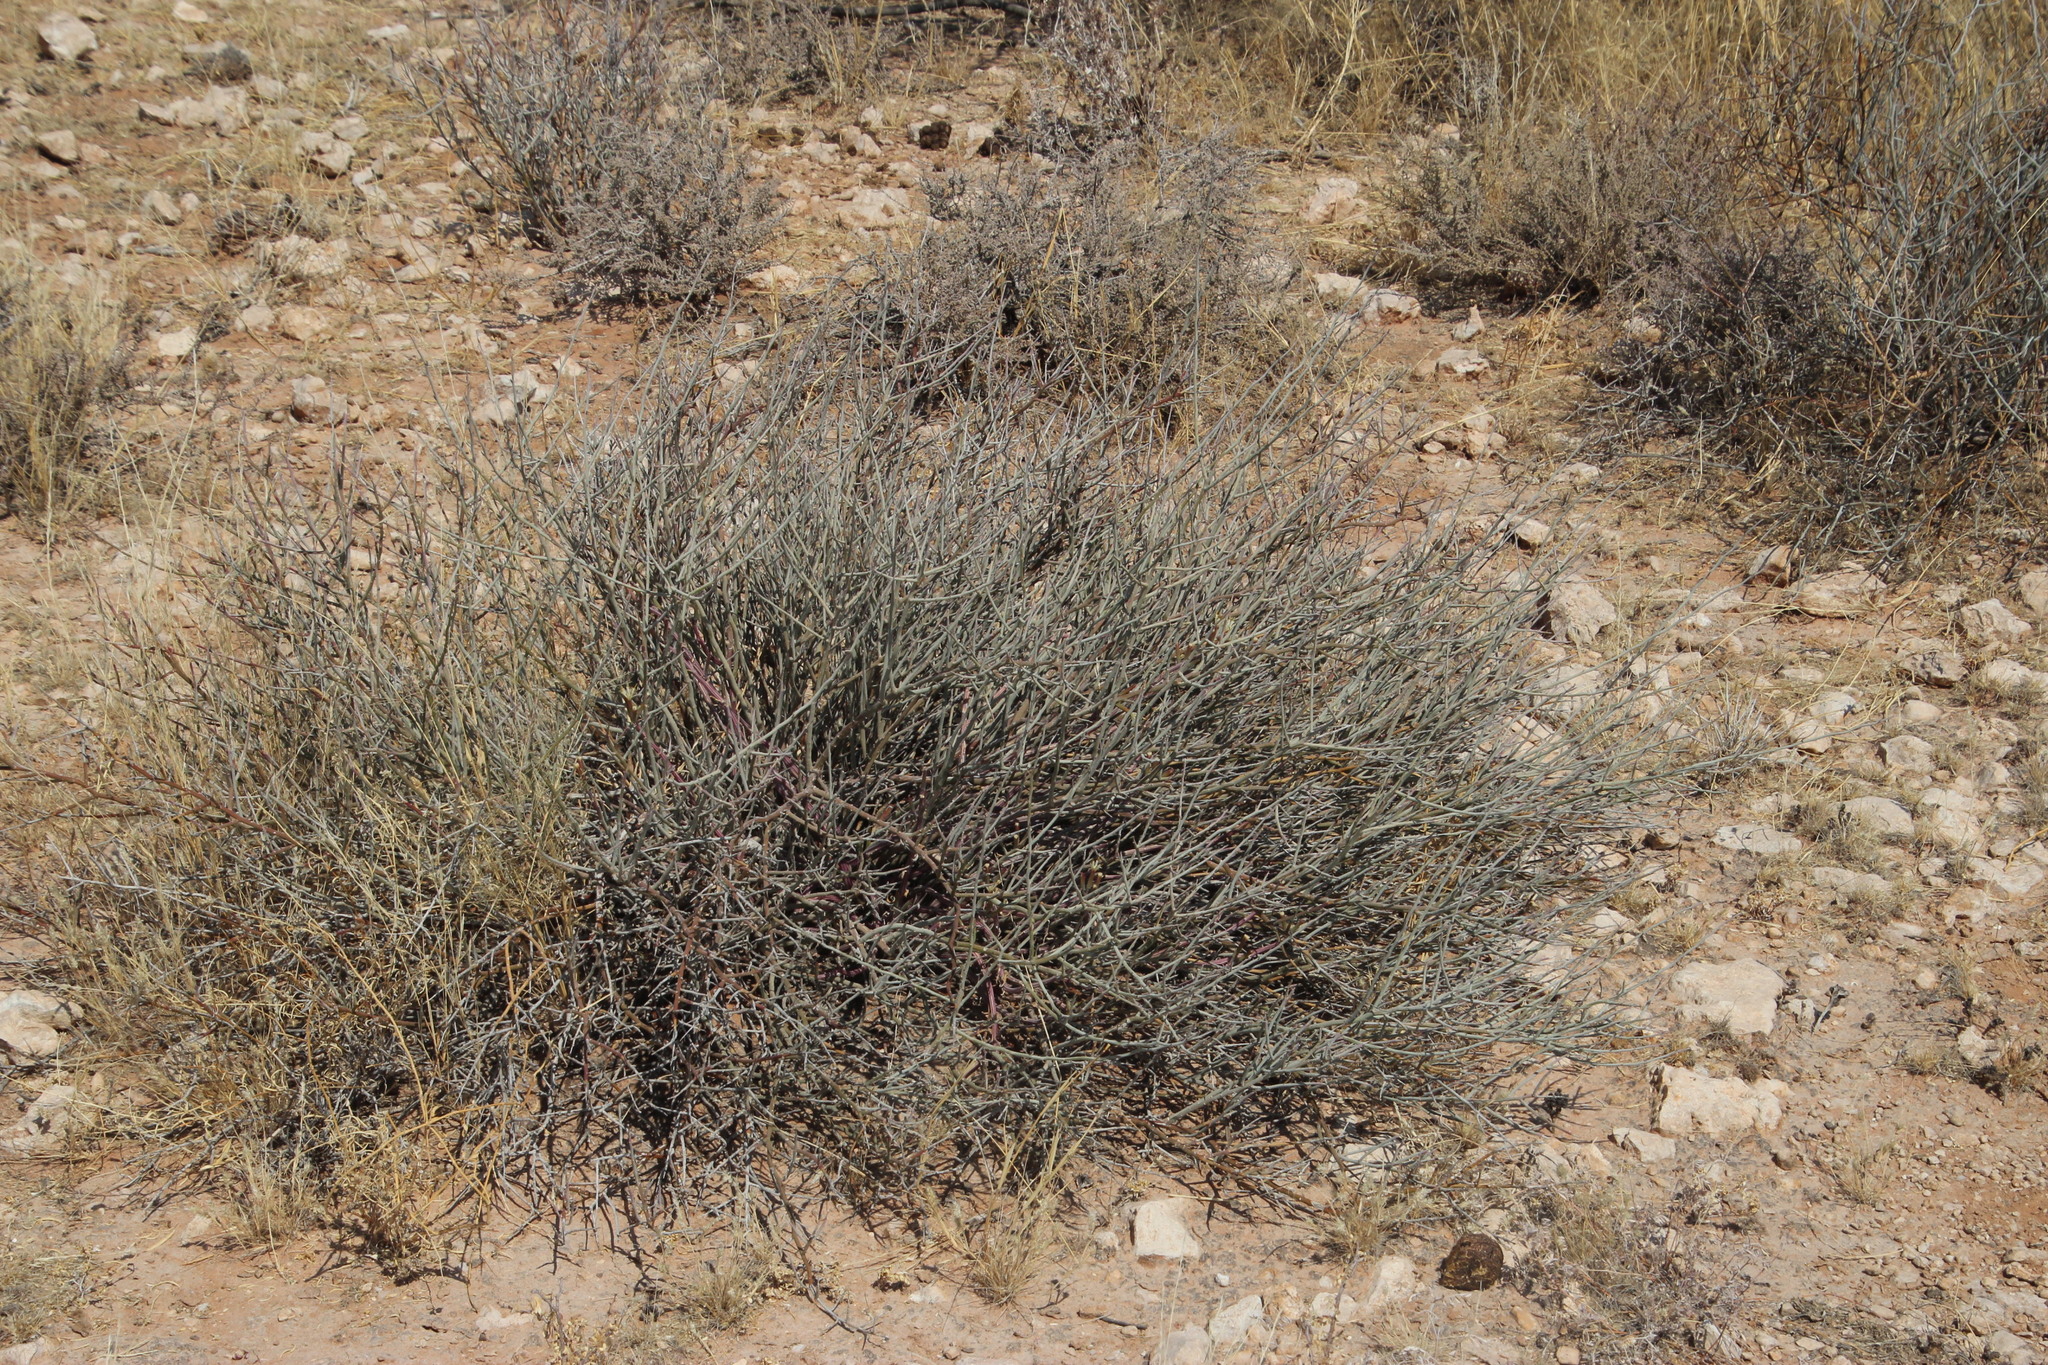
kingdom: Plantae
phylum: Tracheophyta
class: Magnoliopsida
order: Asterales
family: Asteraceae
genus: Curio
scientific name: Curio avasimontanus
